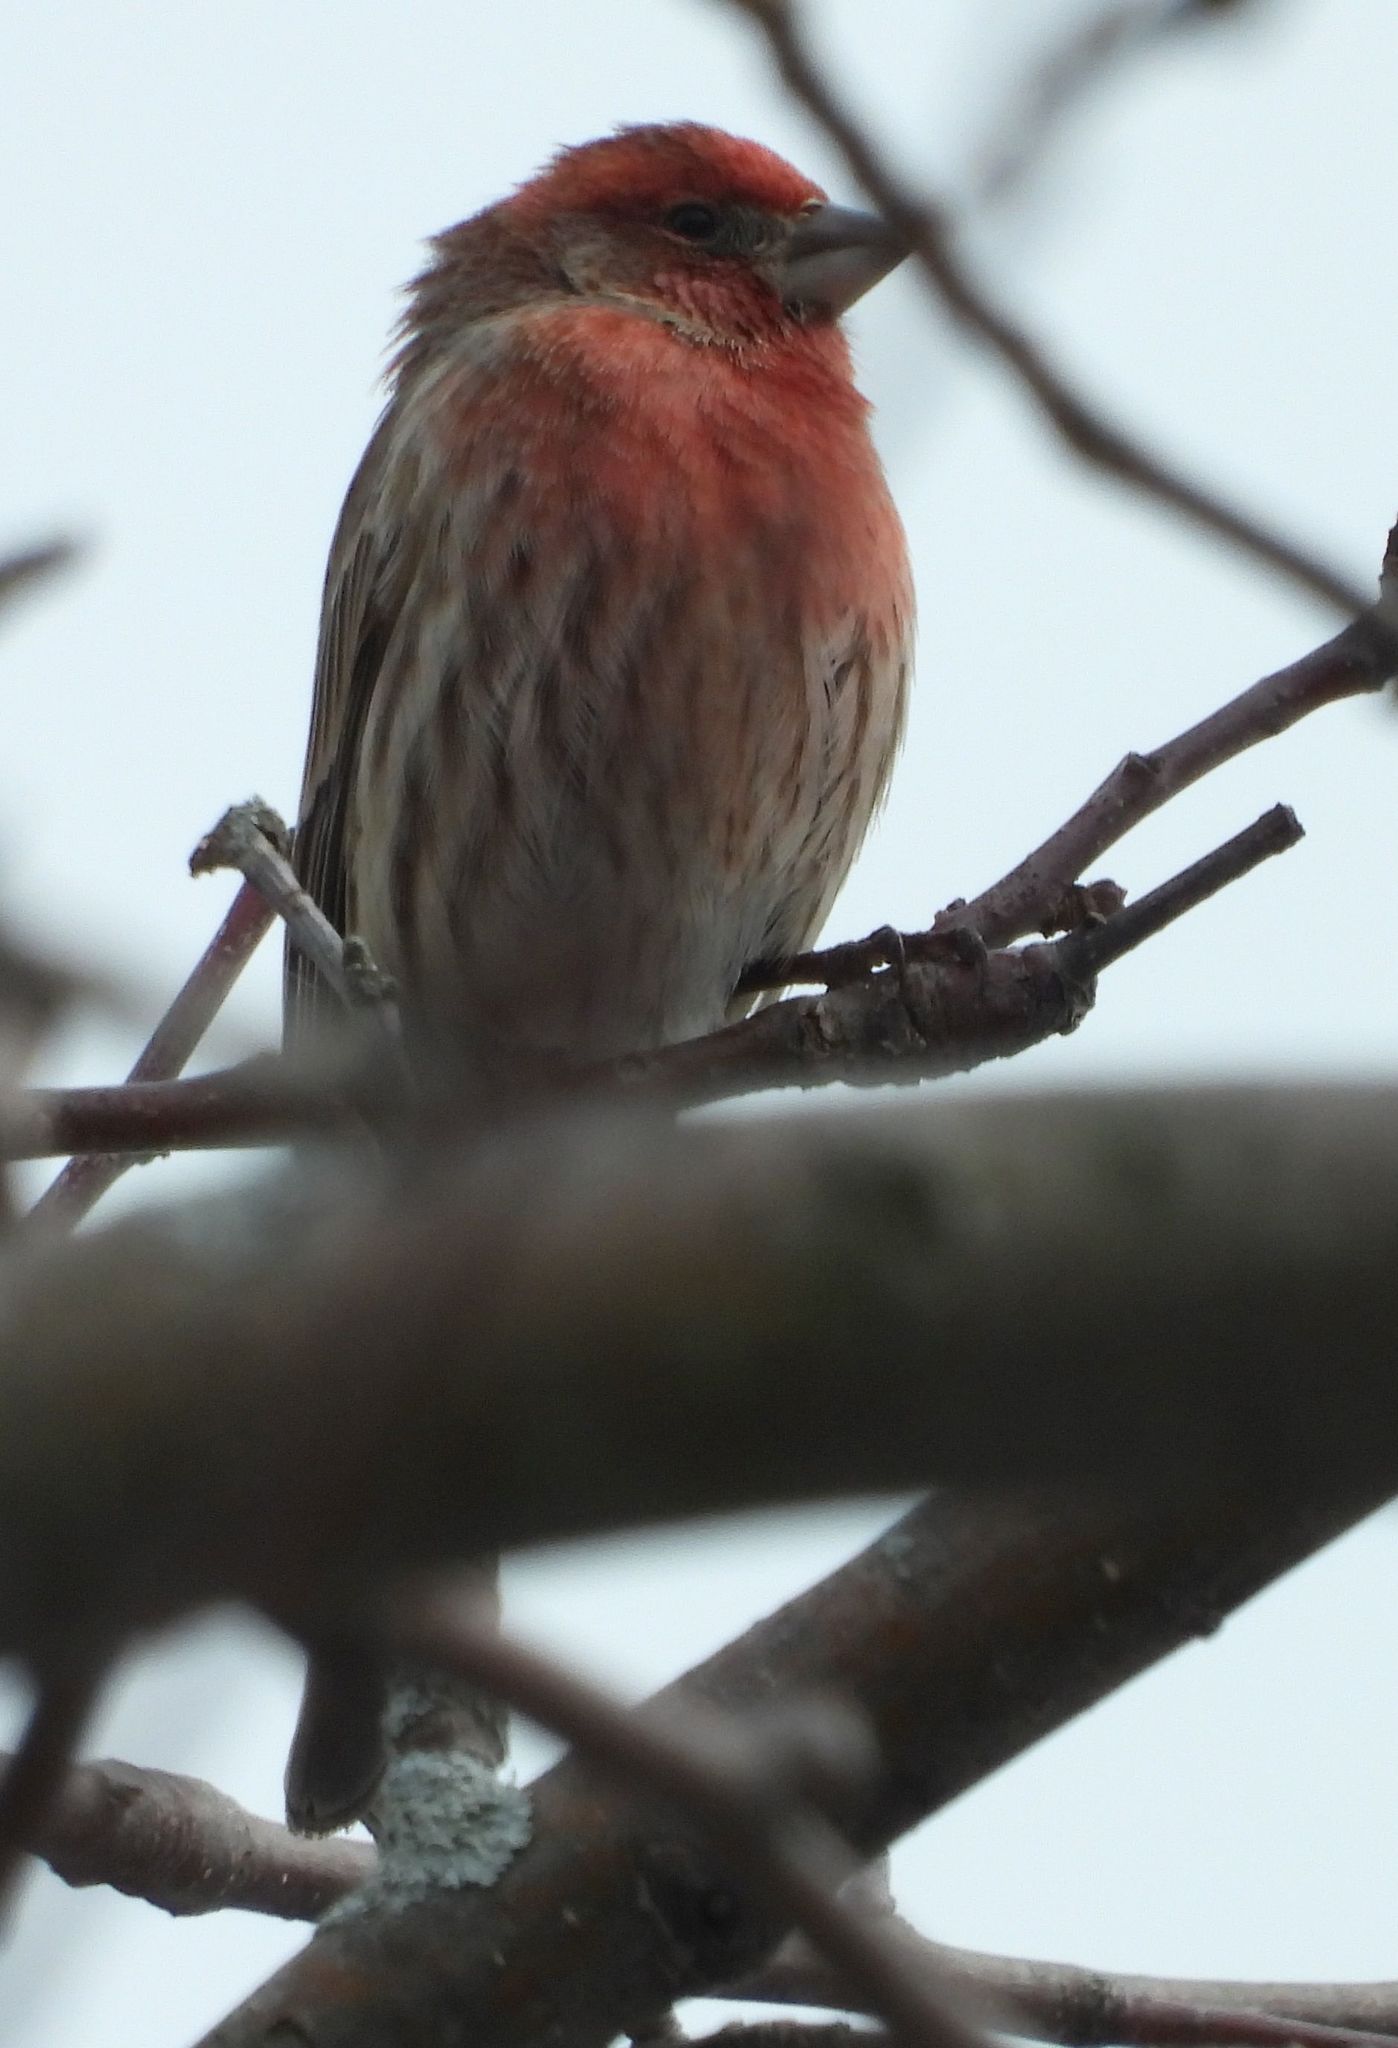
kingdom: Animalia
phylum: Chordata
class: Aves
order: Passeriformes
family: Fringillidae
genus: Haemorhous
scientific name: Haemorhous mexicanus
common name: House finch
